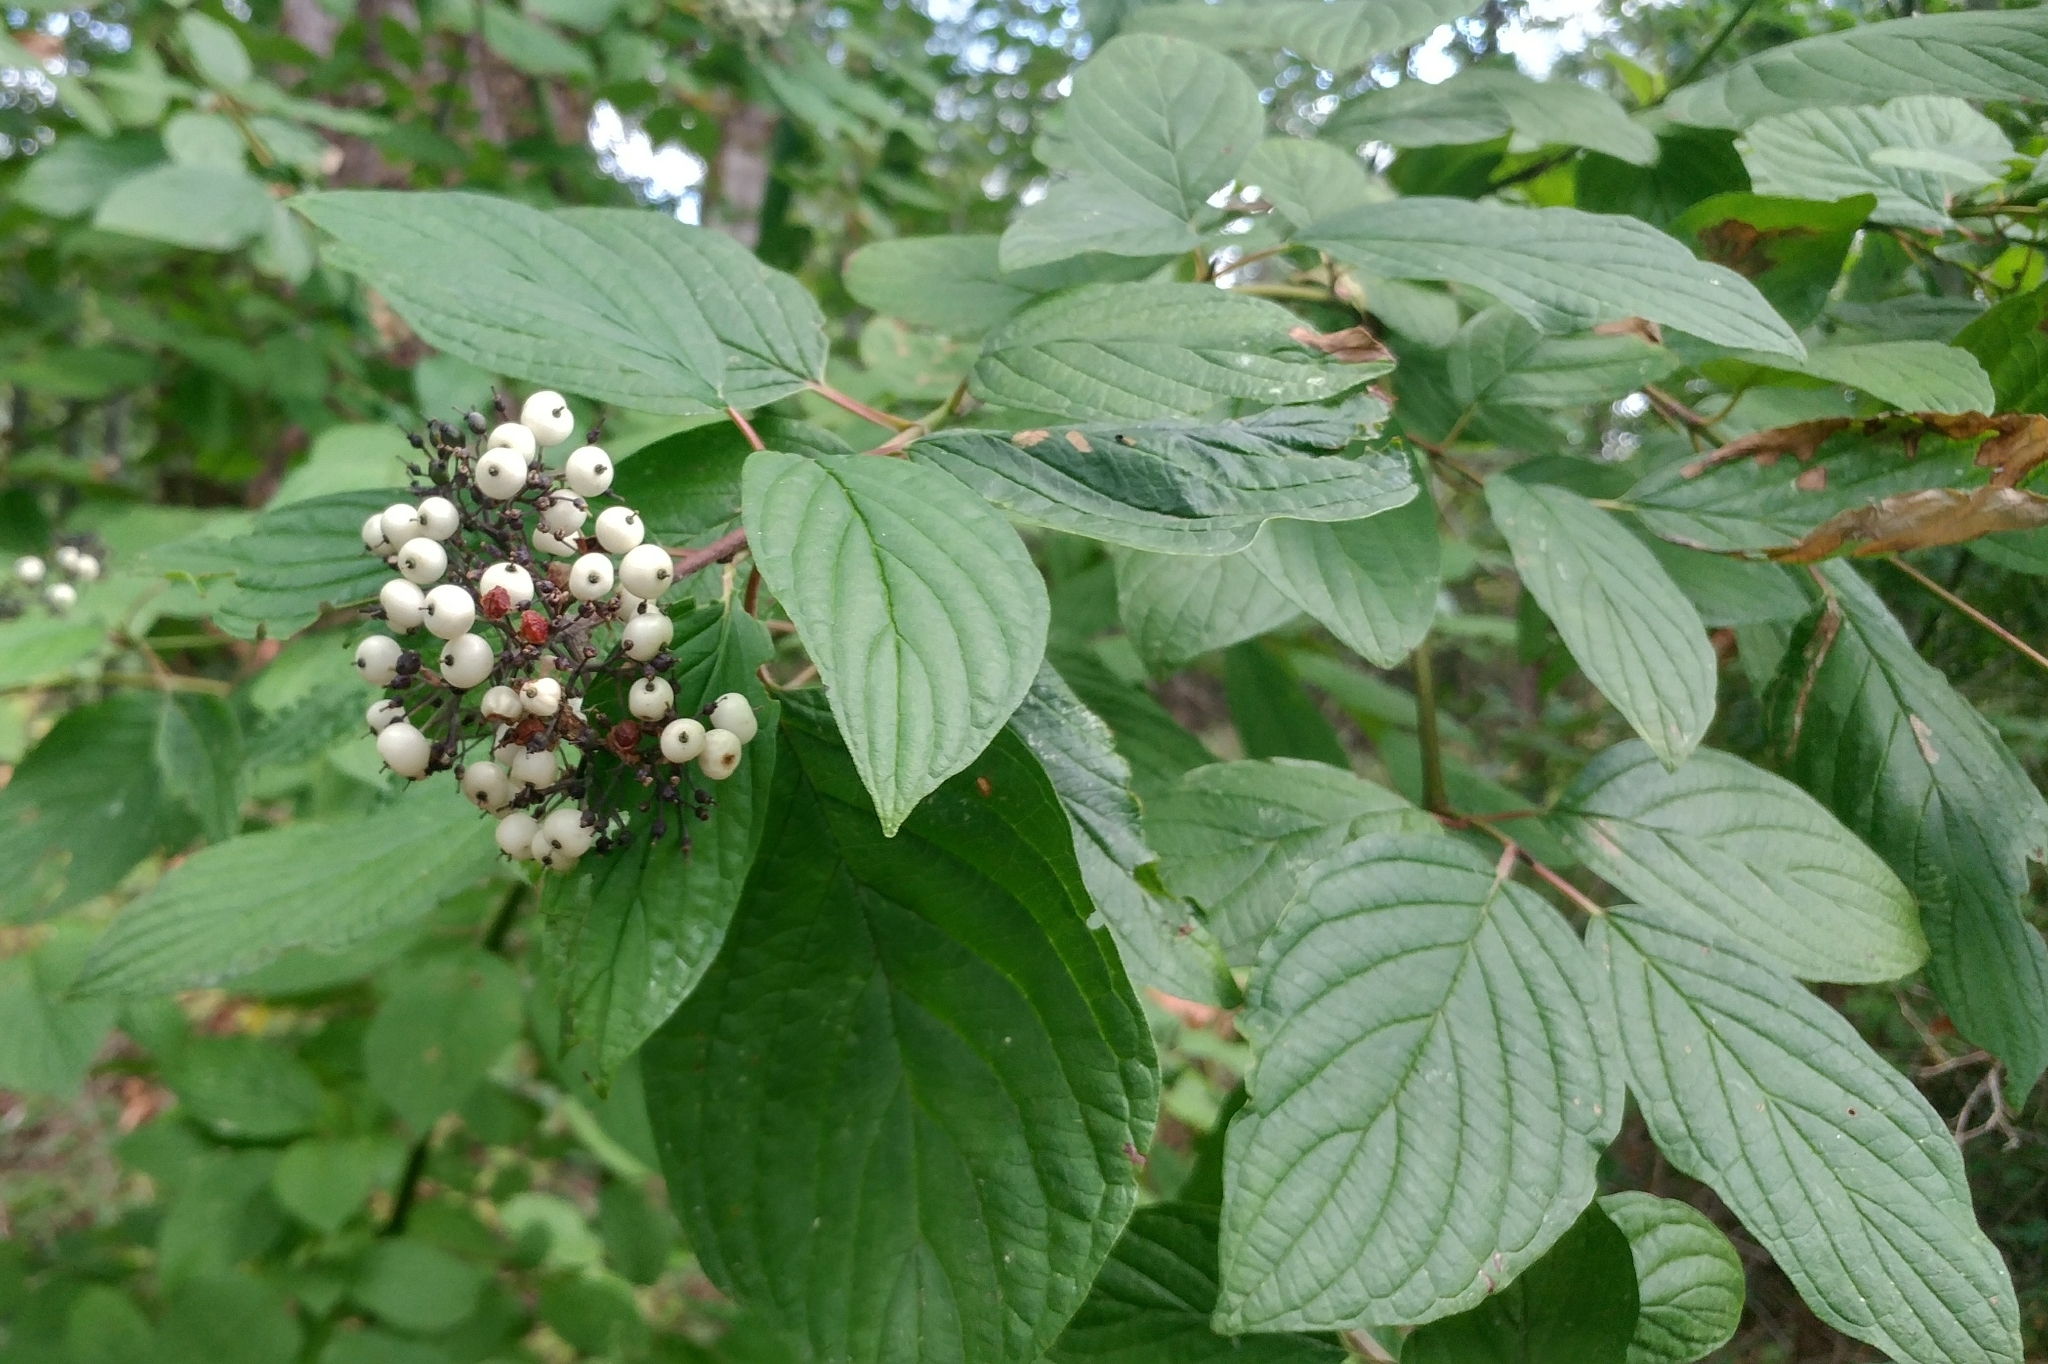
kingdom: Plantae
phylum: Tracheophyta
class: Magnoliopsida
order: Cornales
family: Cornaceae
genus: Cornus
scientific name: Cornus sericea
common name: Red-osier dogwood
